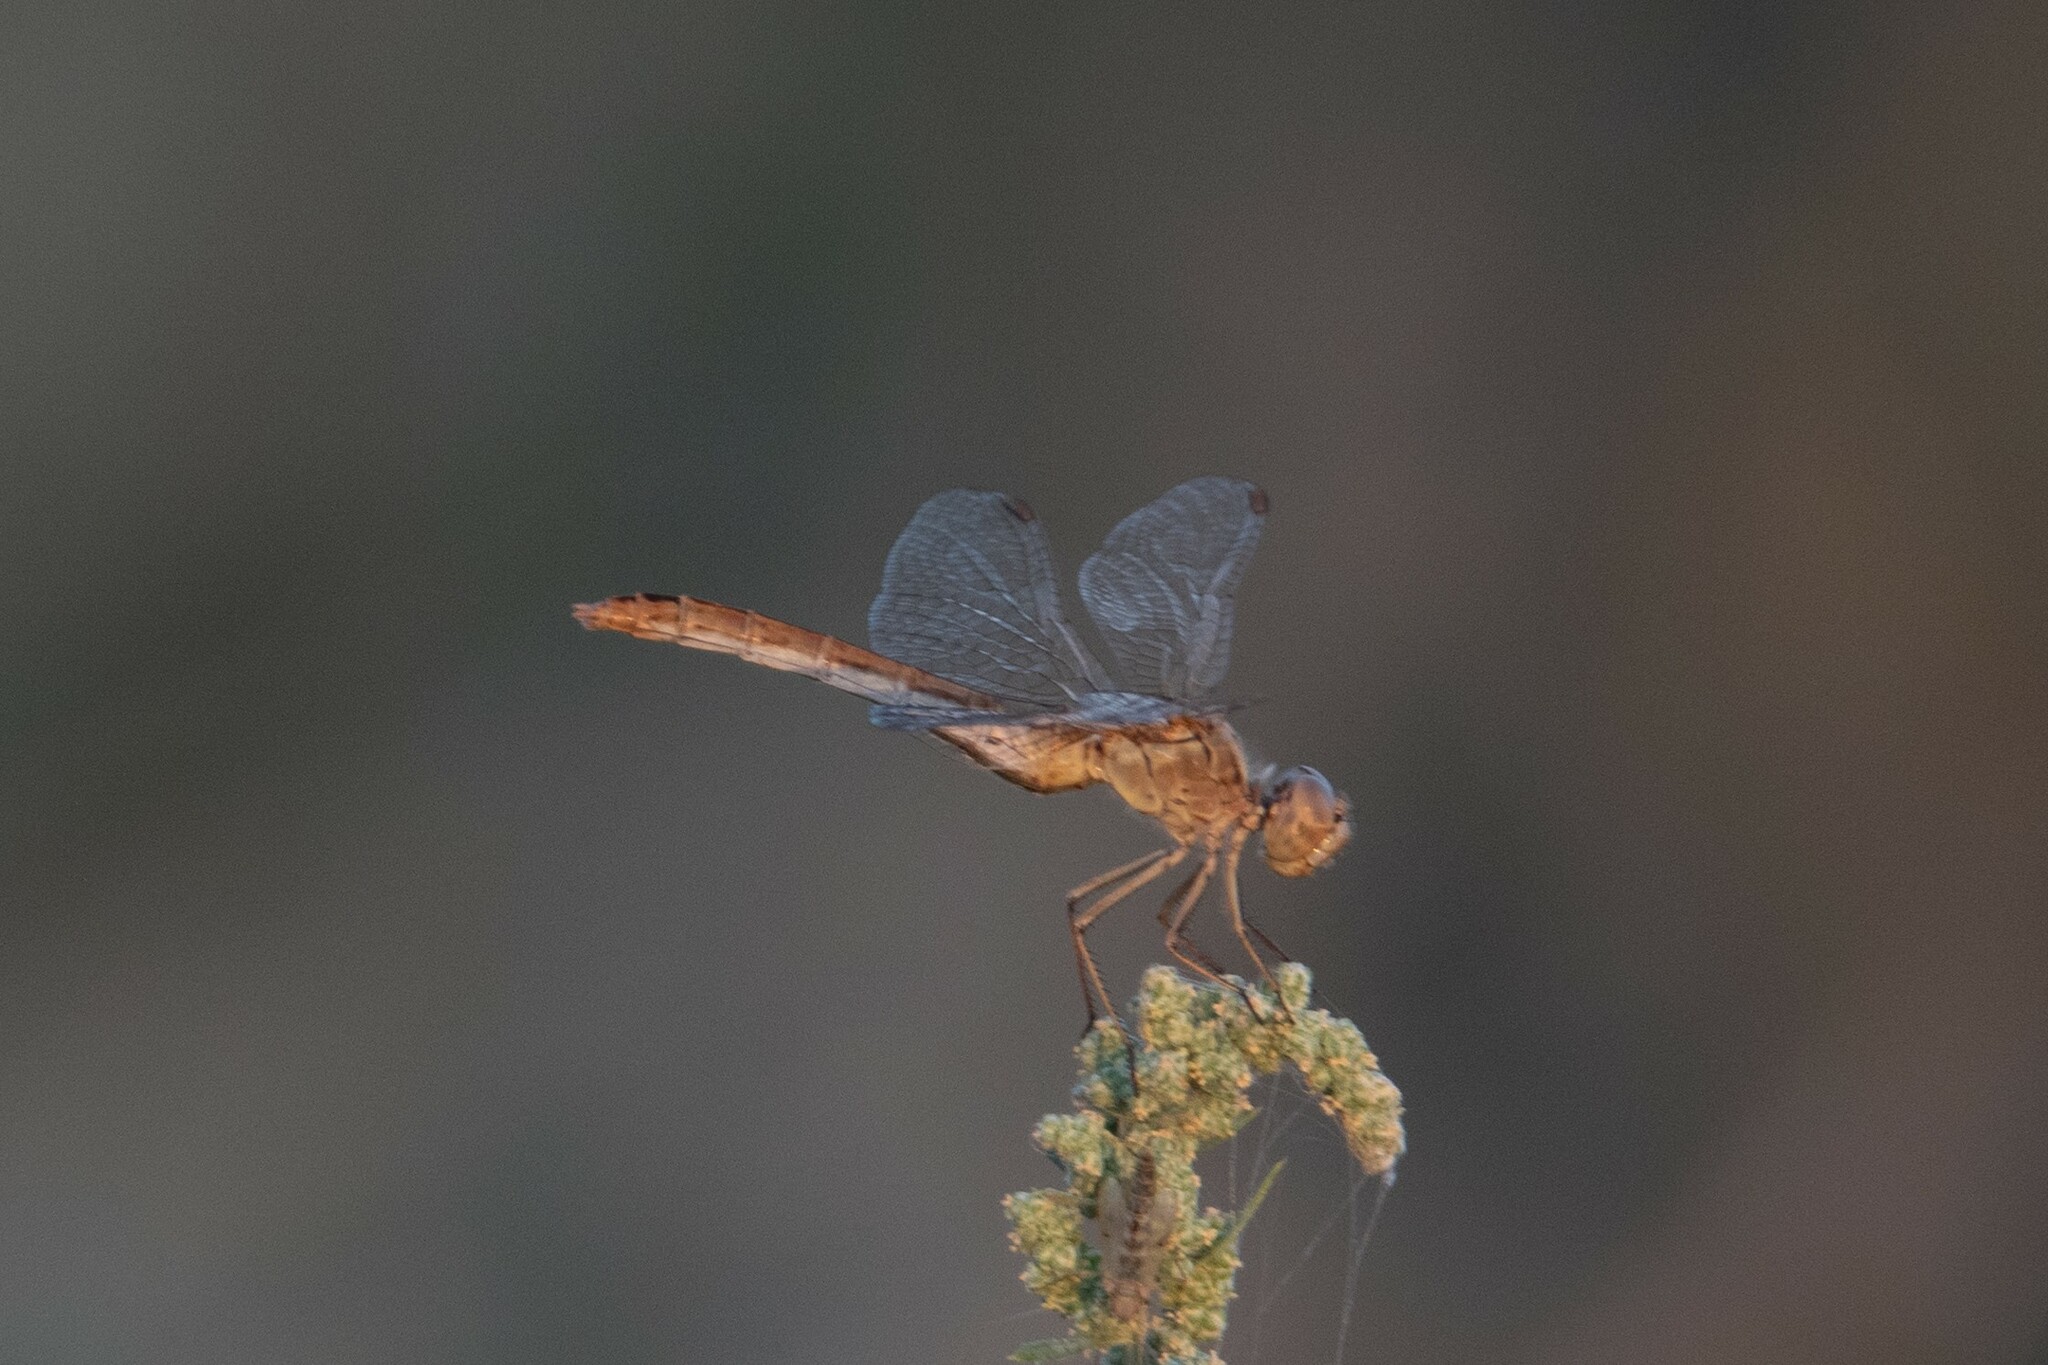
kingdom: Animalia
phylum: Arthropoda
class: Insecta
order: Odonata
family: Libellulidae
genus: Sympetrum
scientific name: Sympetrum meridionale
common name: Southern darter
